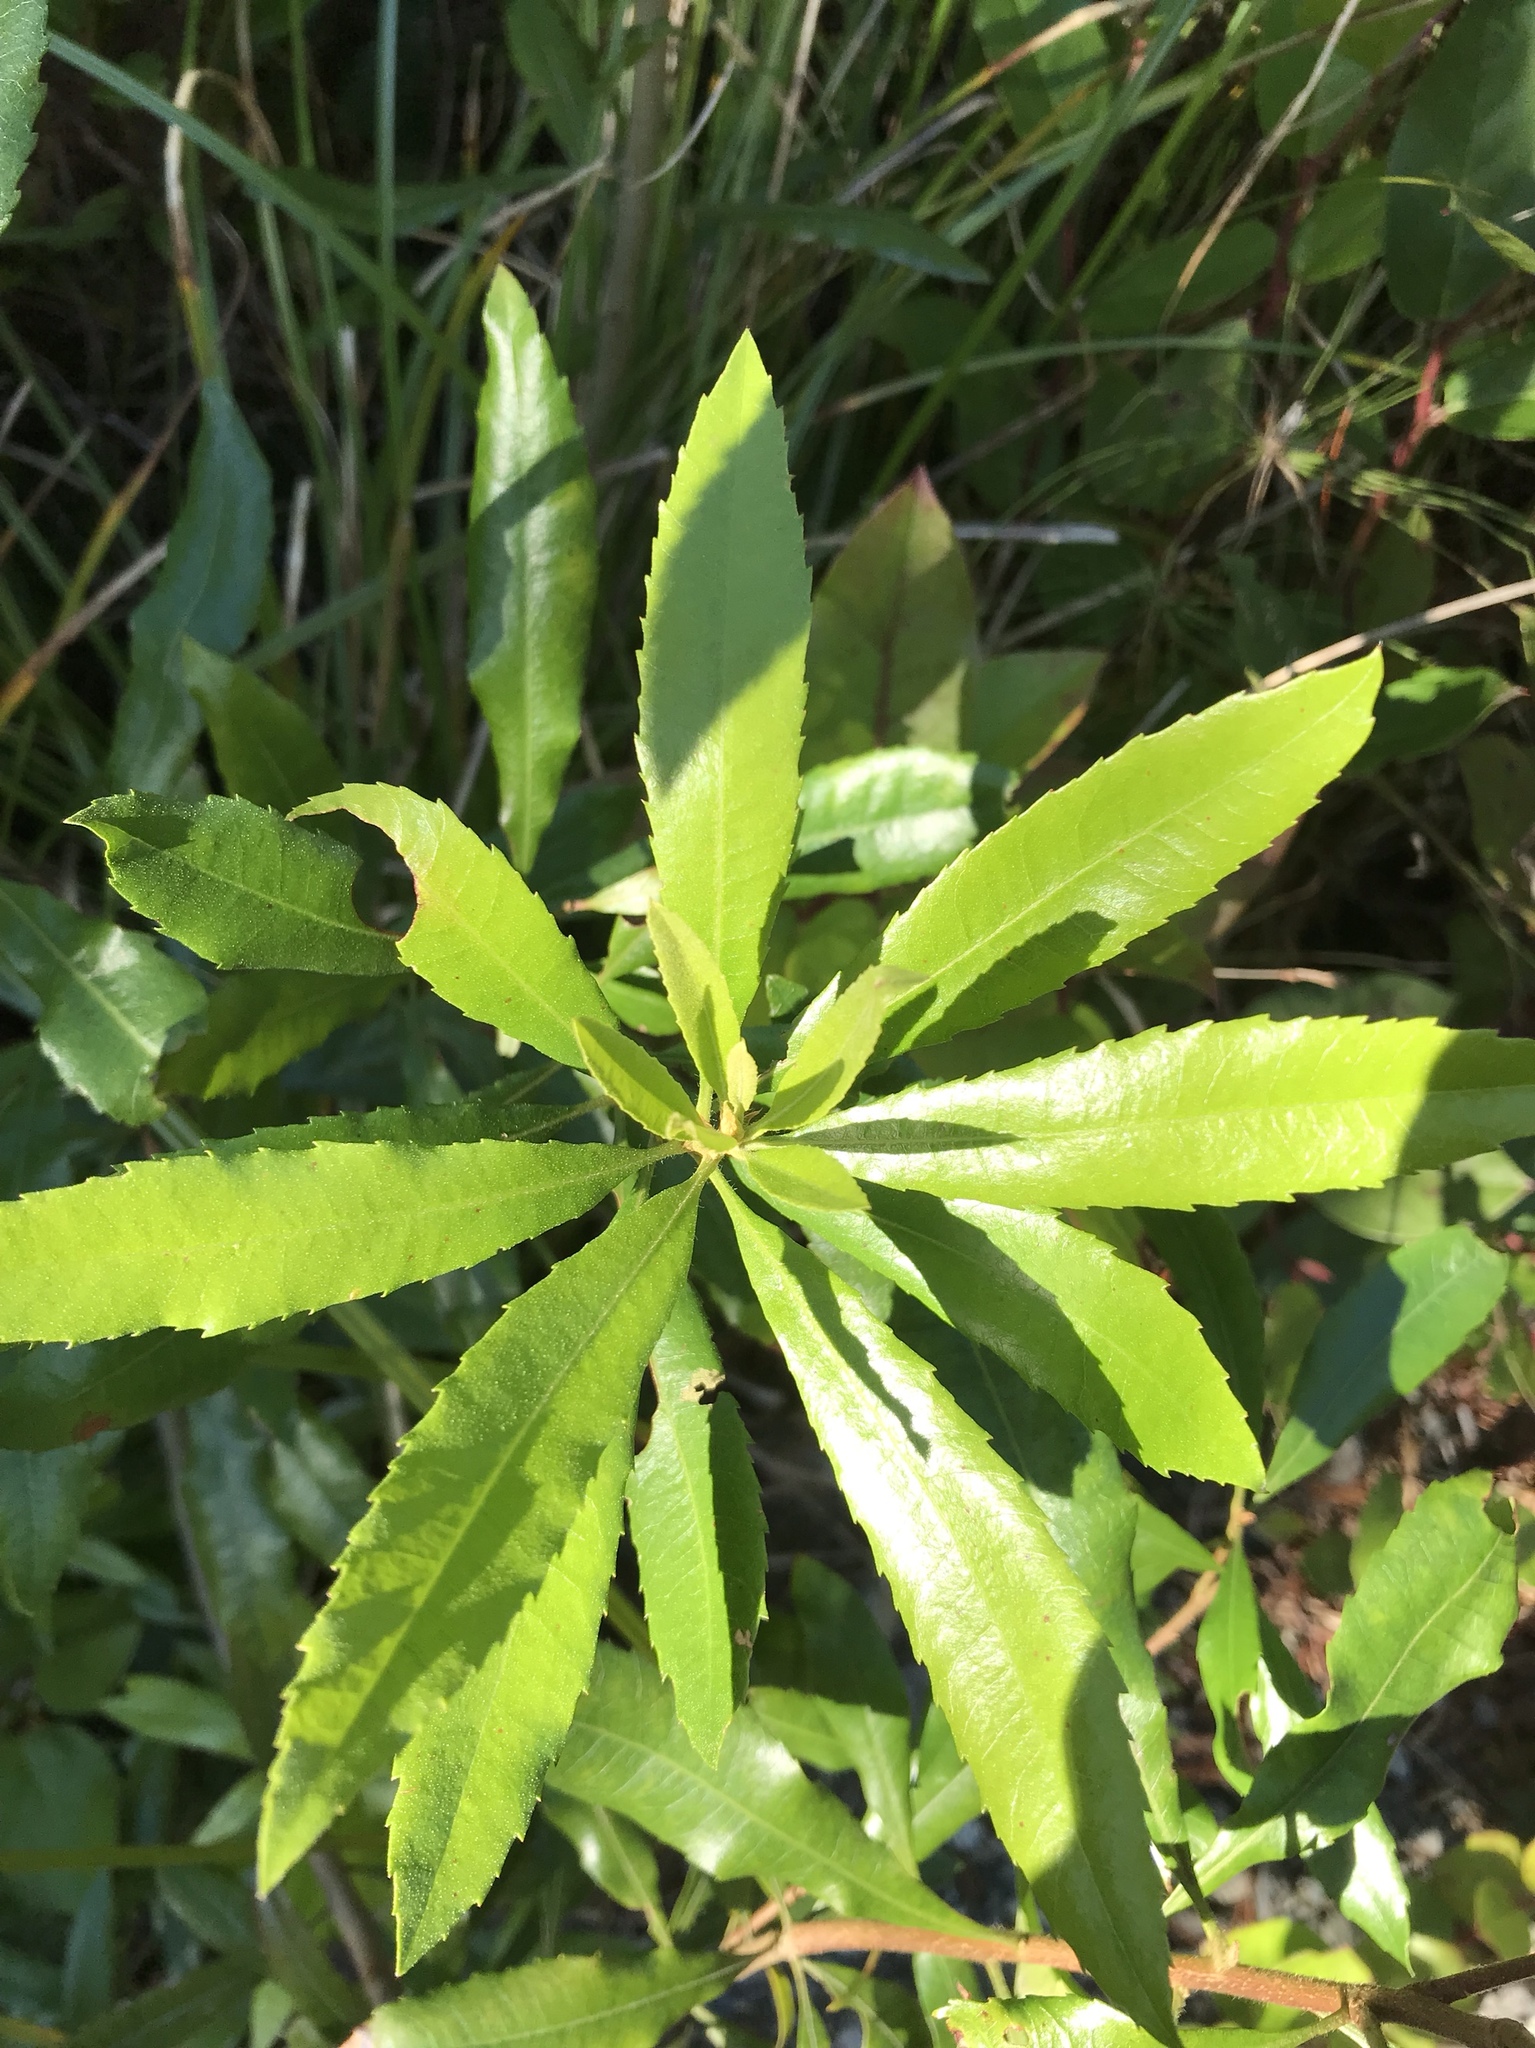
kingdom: Plantae
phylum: Tracheophyta
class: Magnoliopsida
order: Fagales
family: Myricaceae
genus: Morella
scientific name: Morella californica
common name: California wax-myrtle
